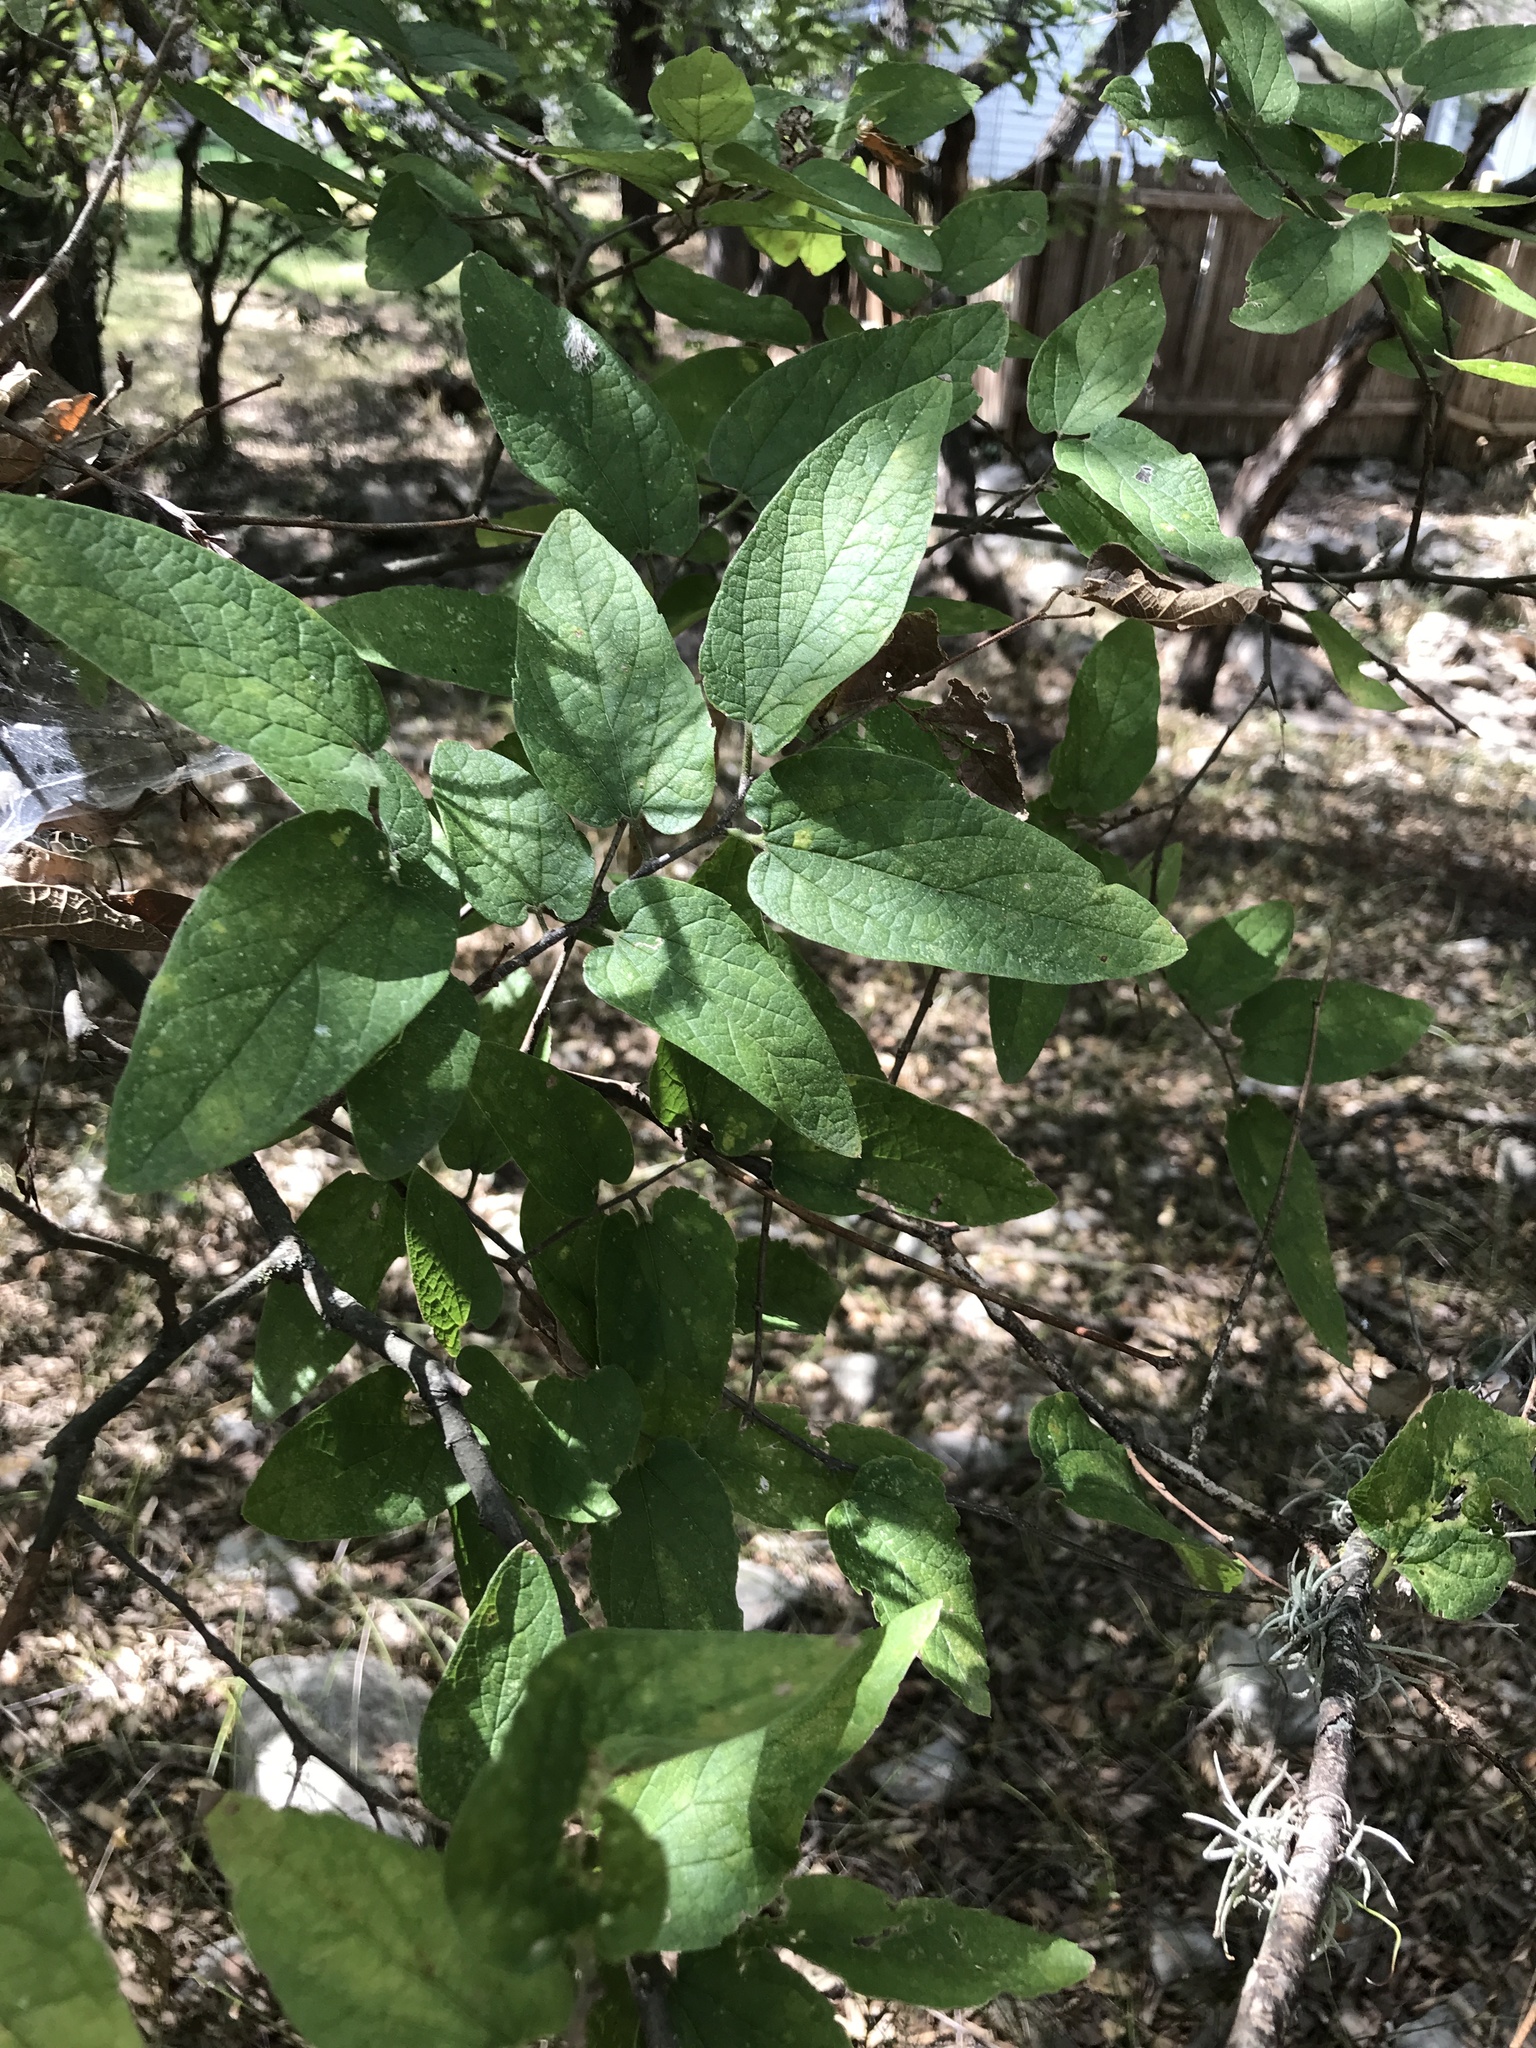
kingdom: Plantae
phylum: Tracheophyta
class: Magnoliopsida
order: Rosales
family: Cannabaceae
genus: Celtis
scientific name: Celtis reticulata
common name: Netleaf hackberry
